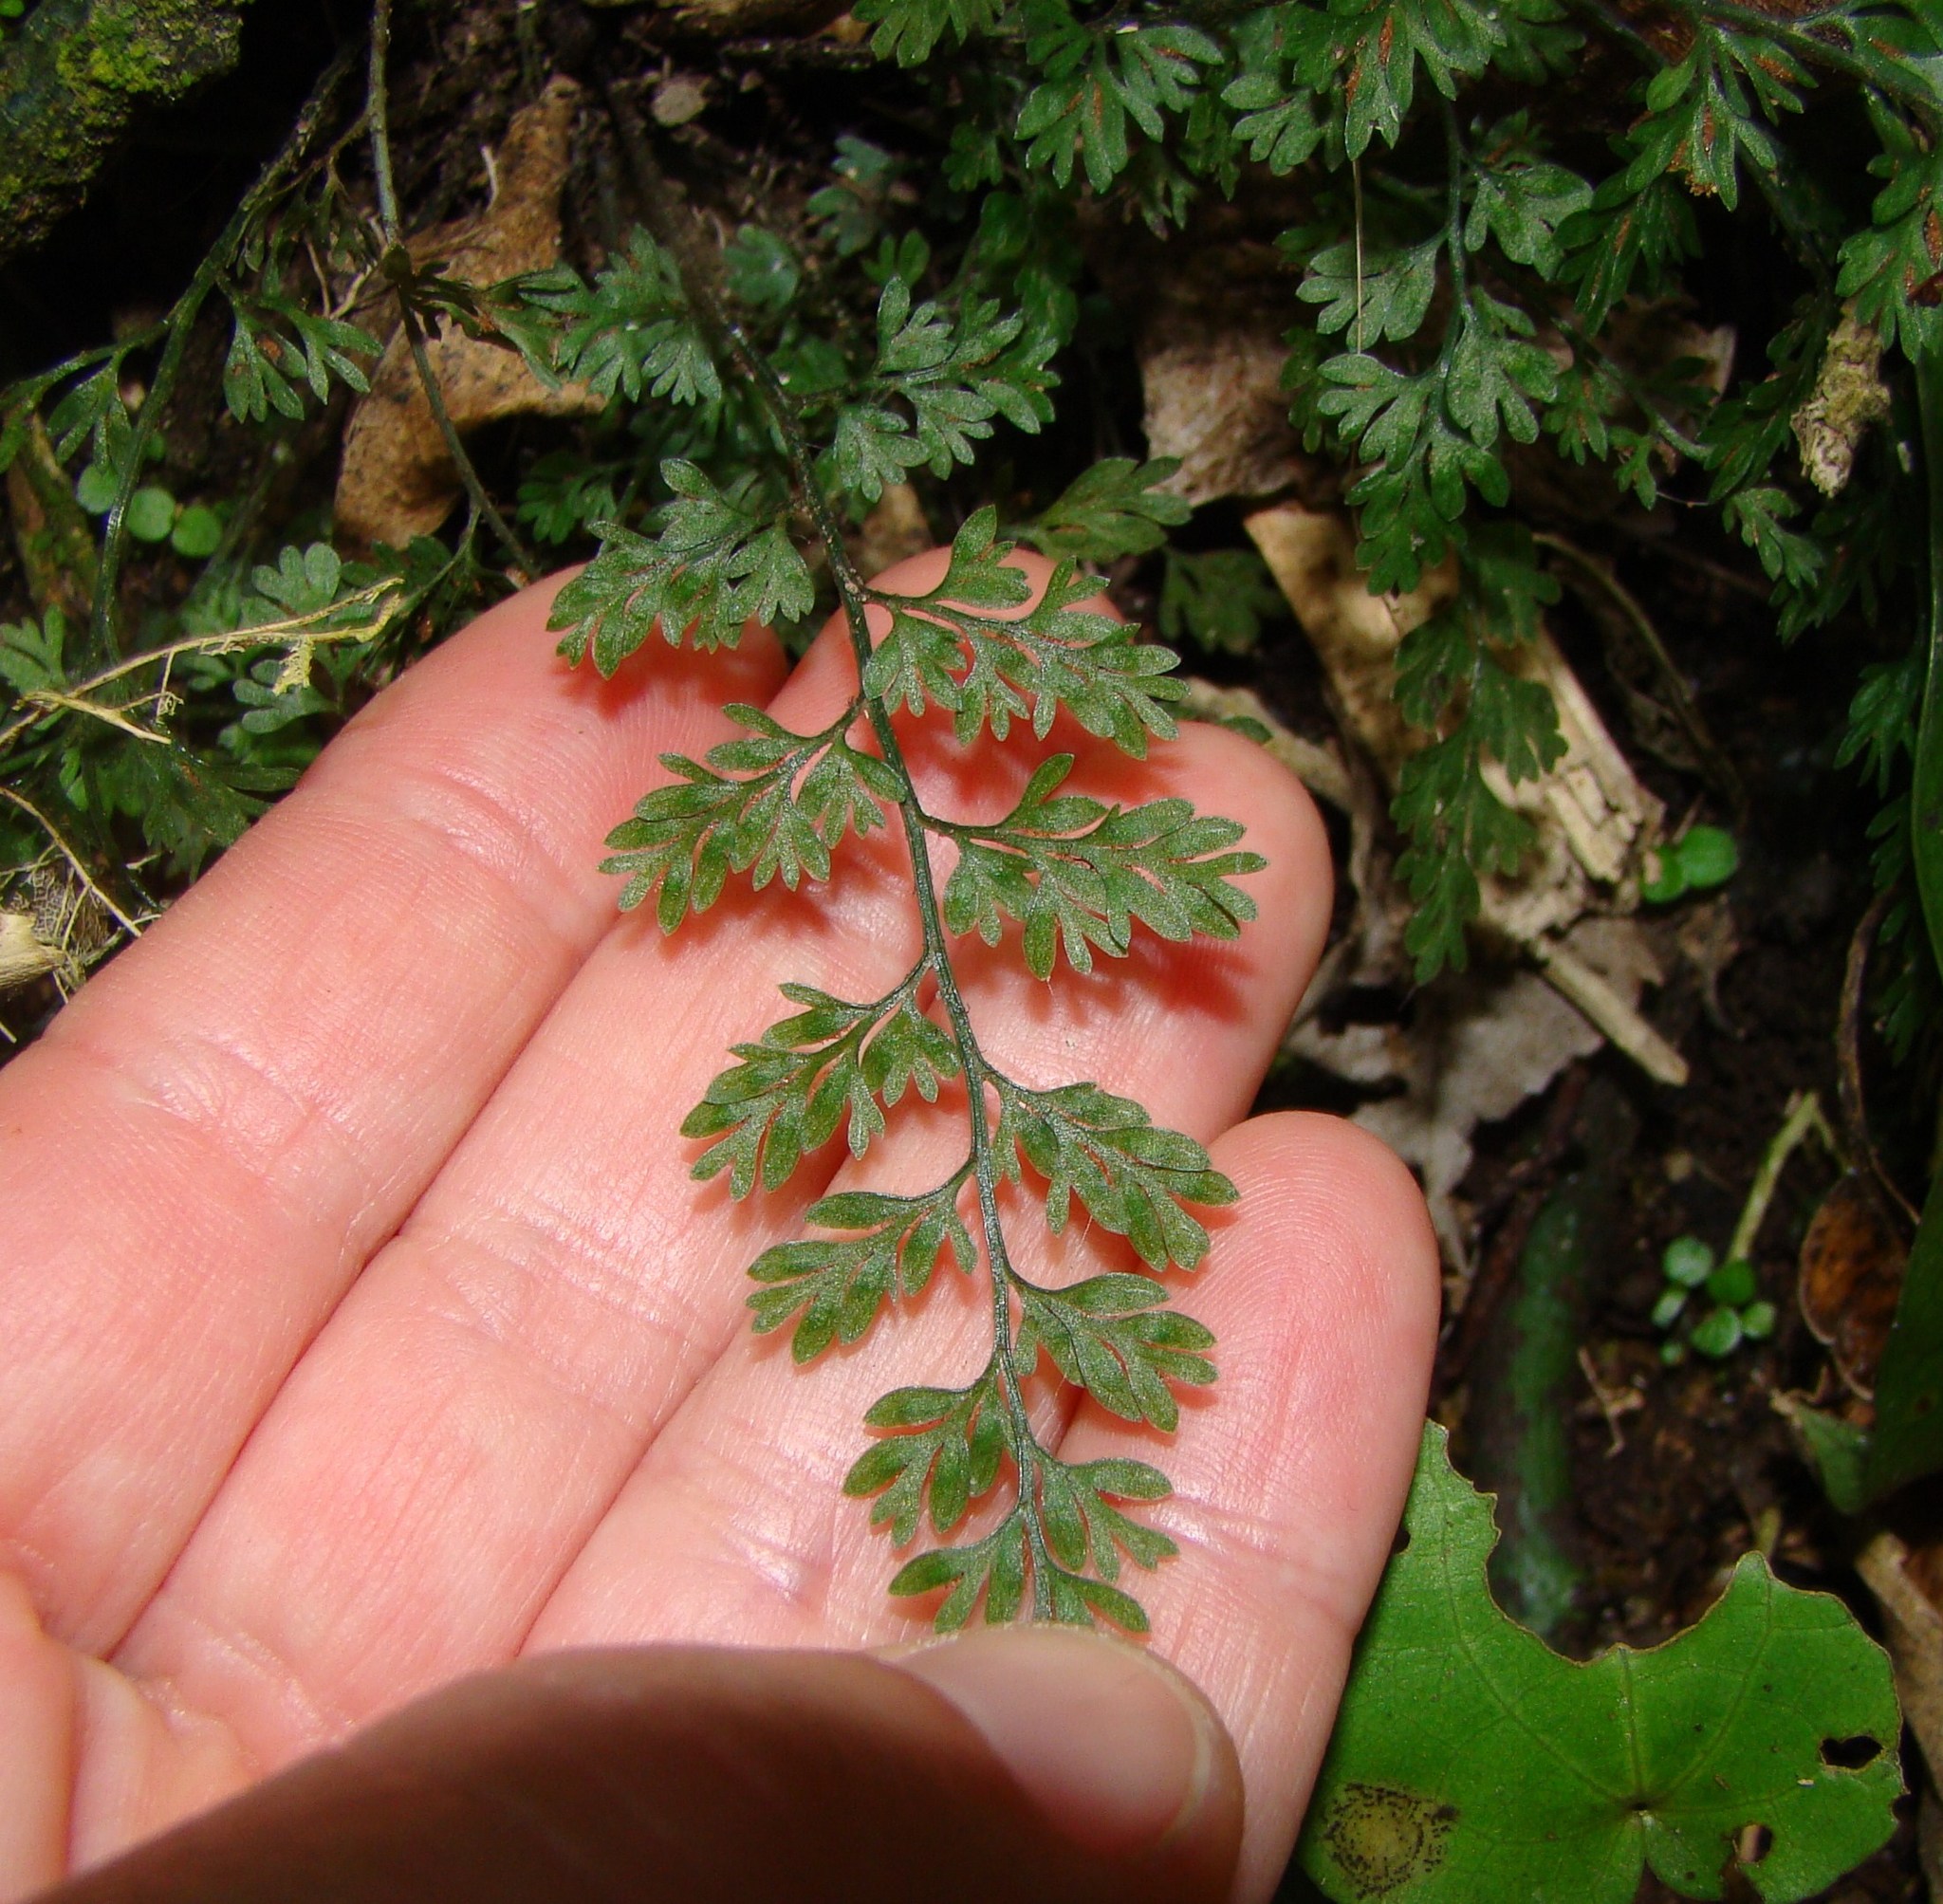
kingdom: Plantae
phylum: Tracheophyta
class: Polypodiopsida
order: Polypodiales
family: Aspleniaceae
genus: Asplenium
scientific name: Asplenium hookerianum
